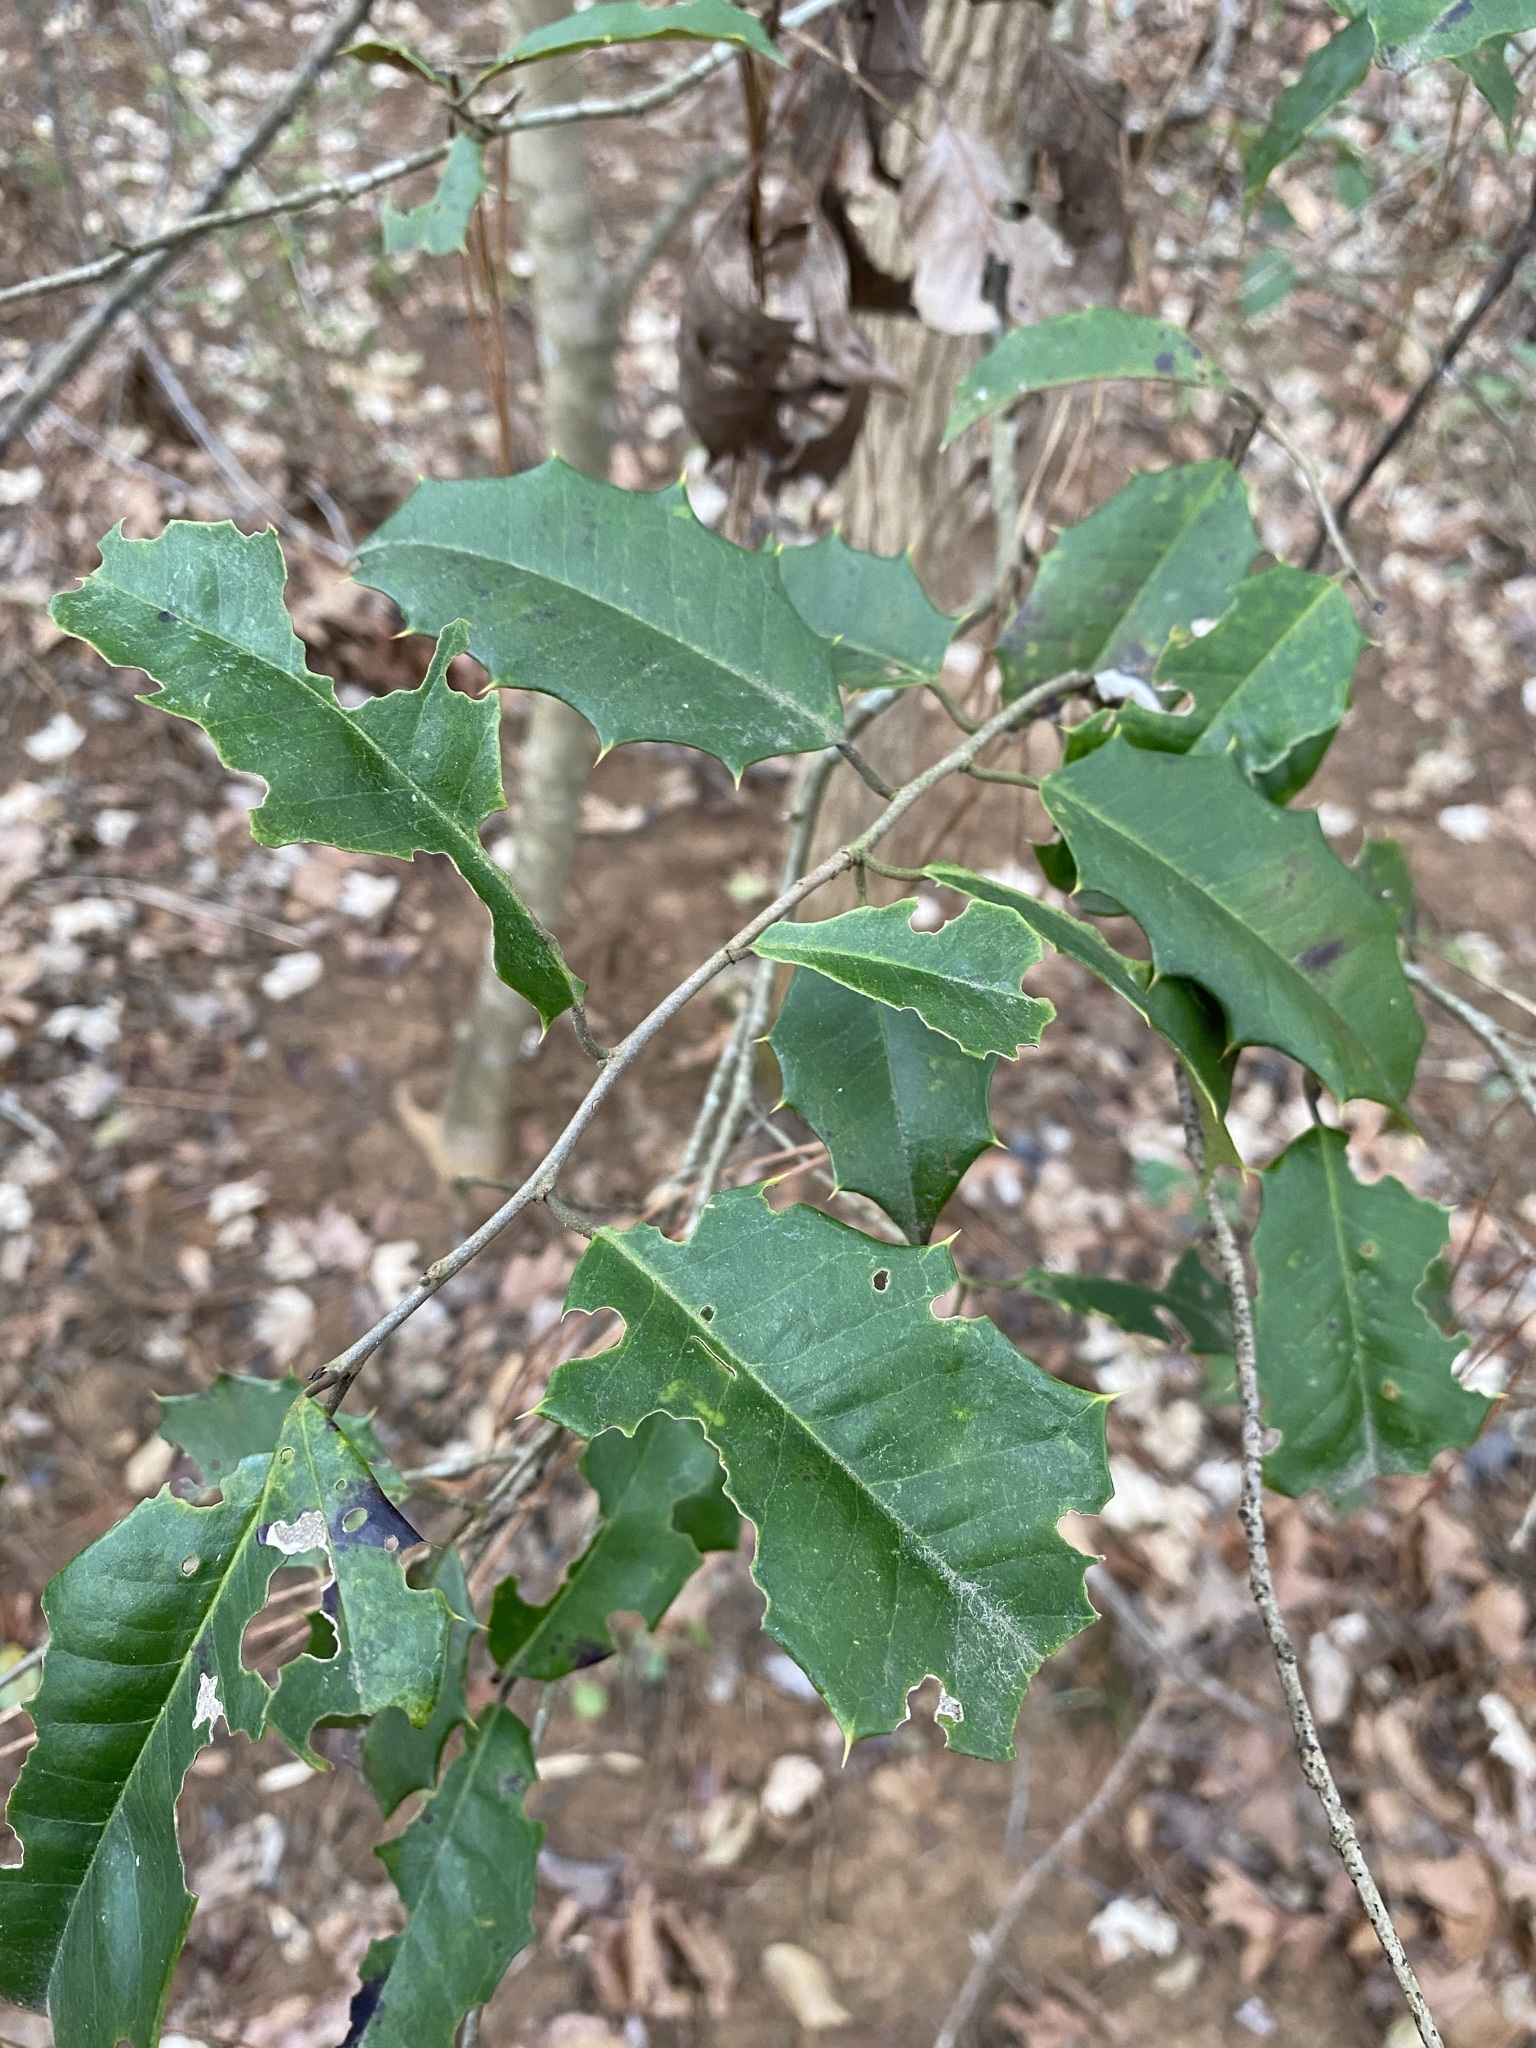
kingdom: Plantae
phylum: Tracheophyta
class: Magnoliopsida
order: Aquifoliales
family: Aquifoliaceae
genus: Ilex
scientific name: Ilex opaca
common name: American holly
